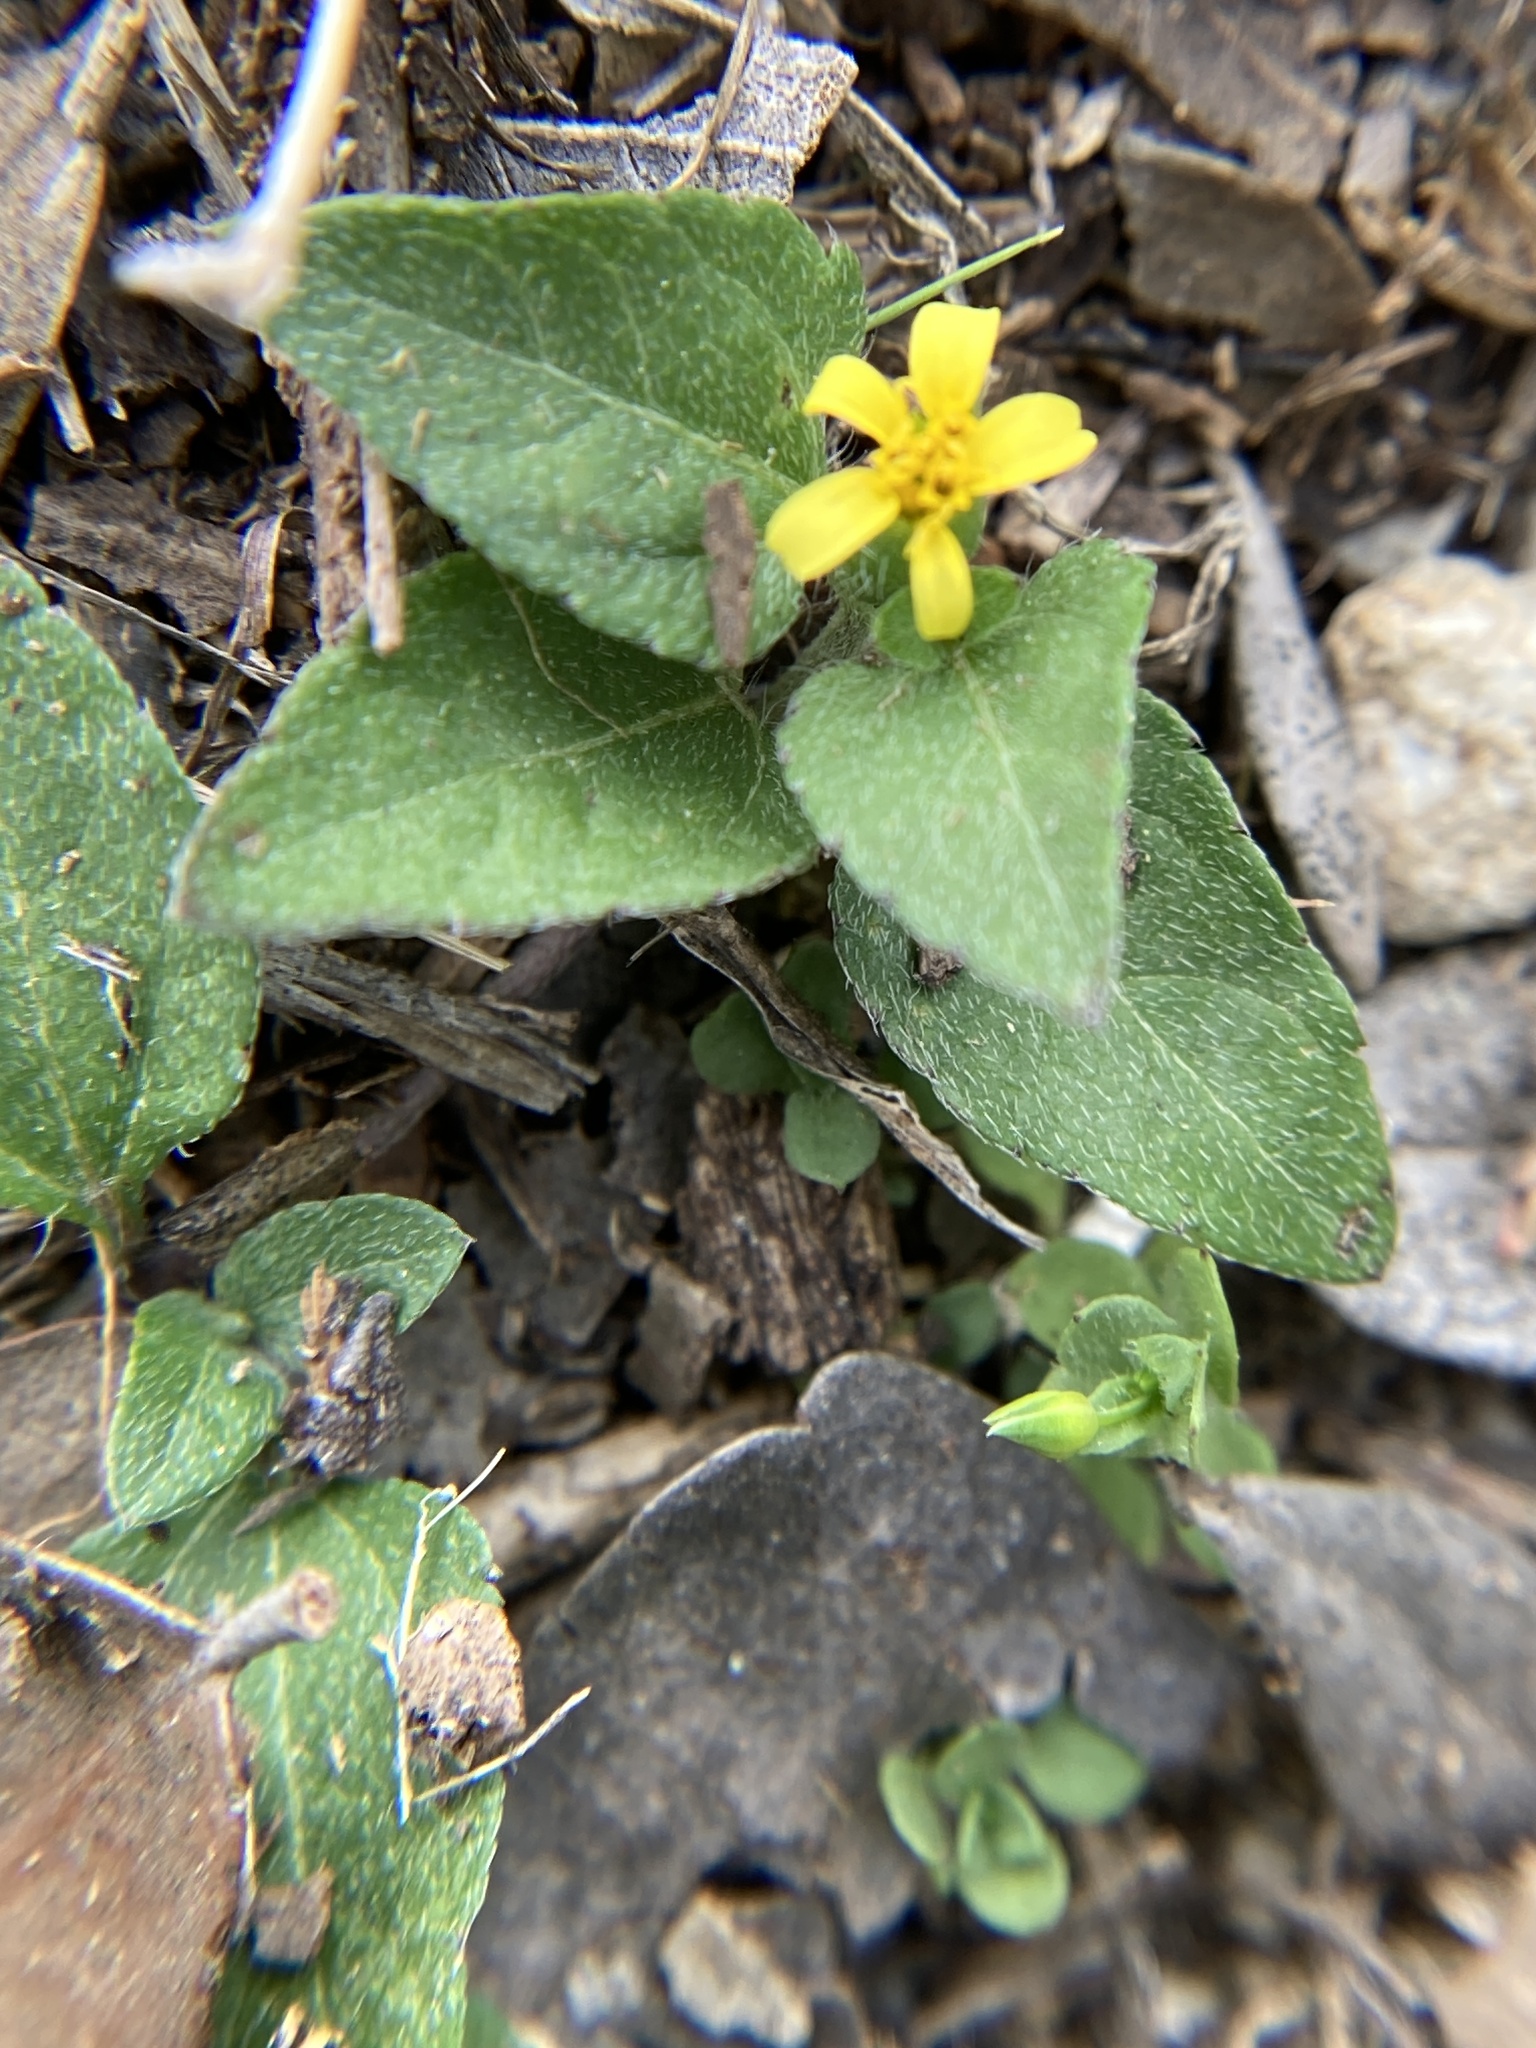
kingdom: Plantae
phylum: Tracheophyta
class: Magnoliopsida
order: Asterales
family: Asteraceae
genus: Calyptocarpus
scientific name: Calyptocarpus vialis
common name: Straggler daisy
